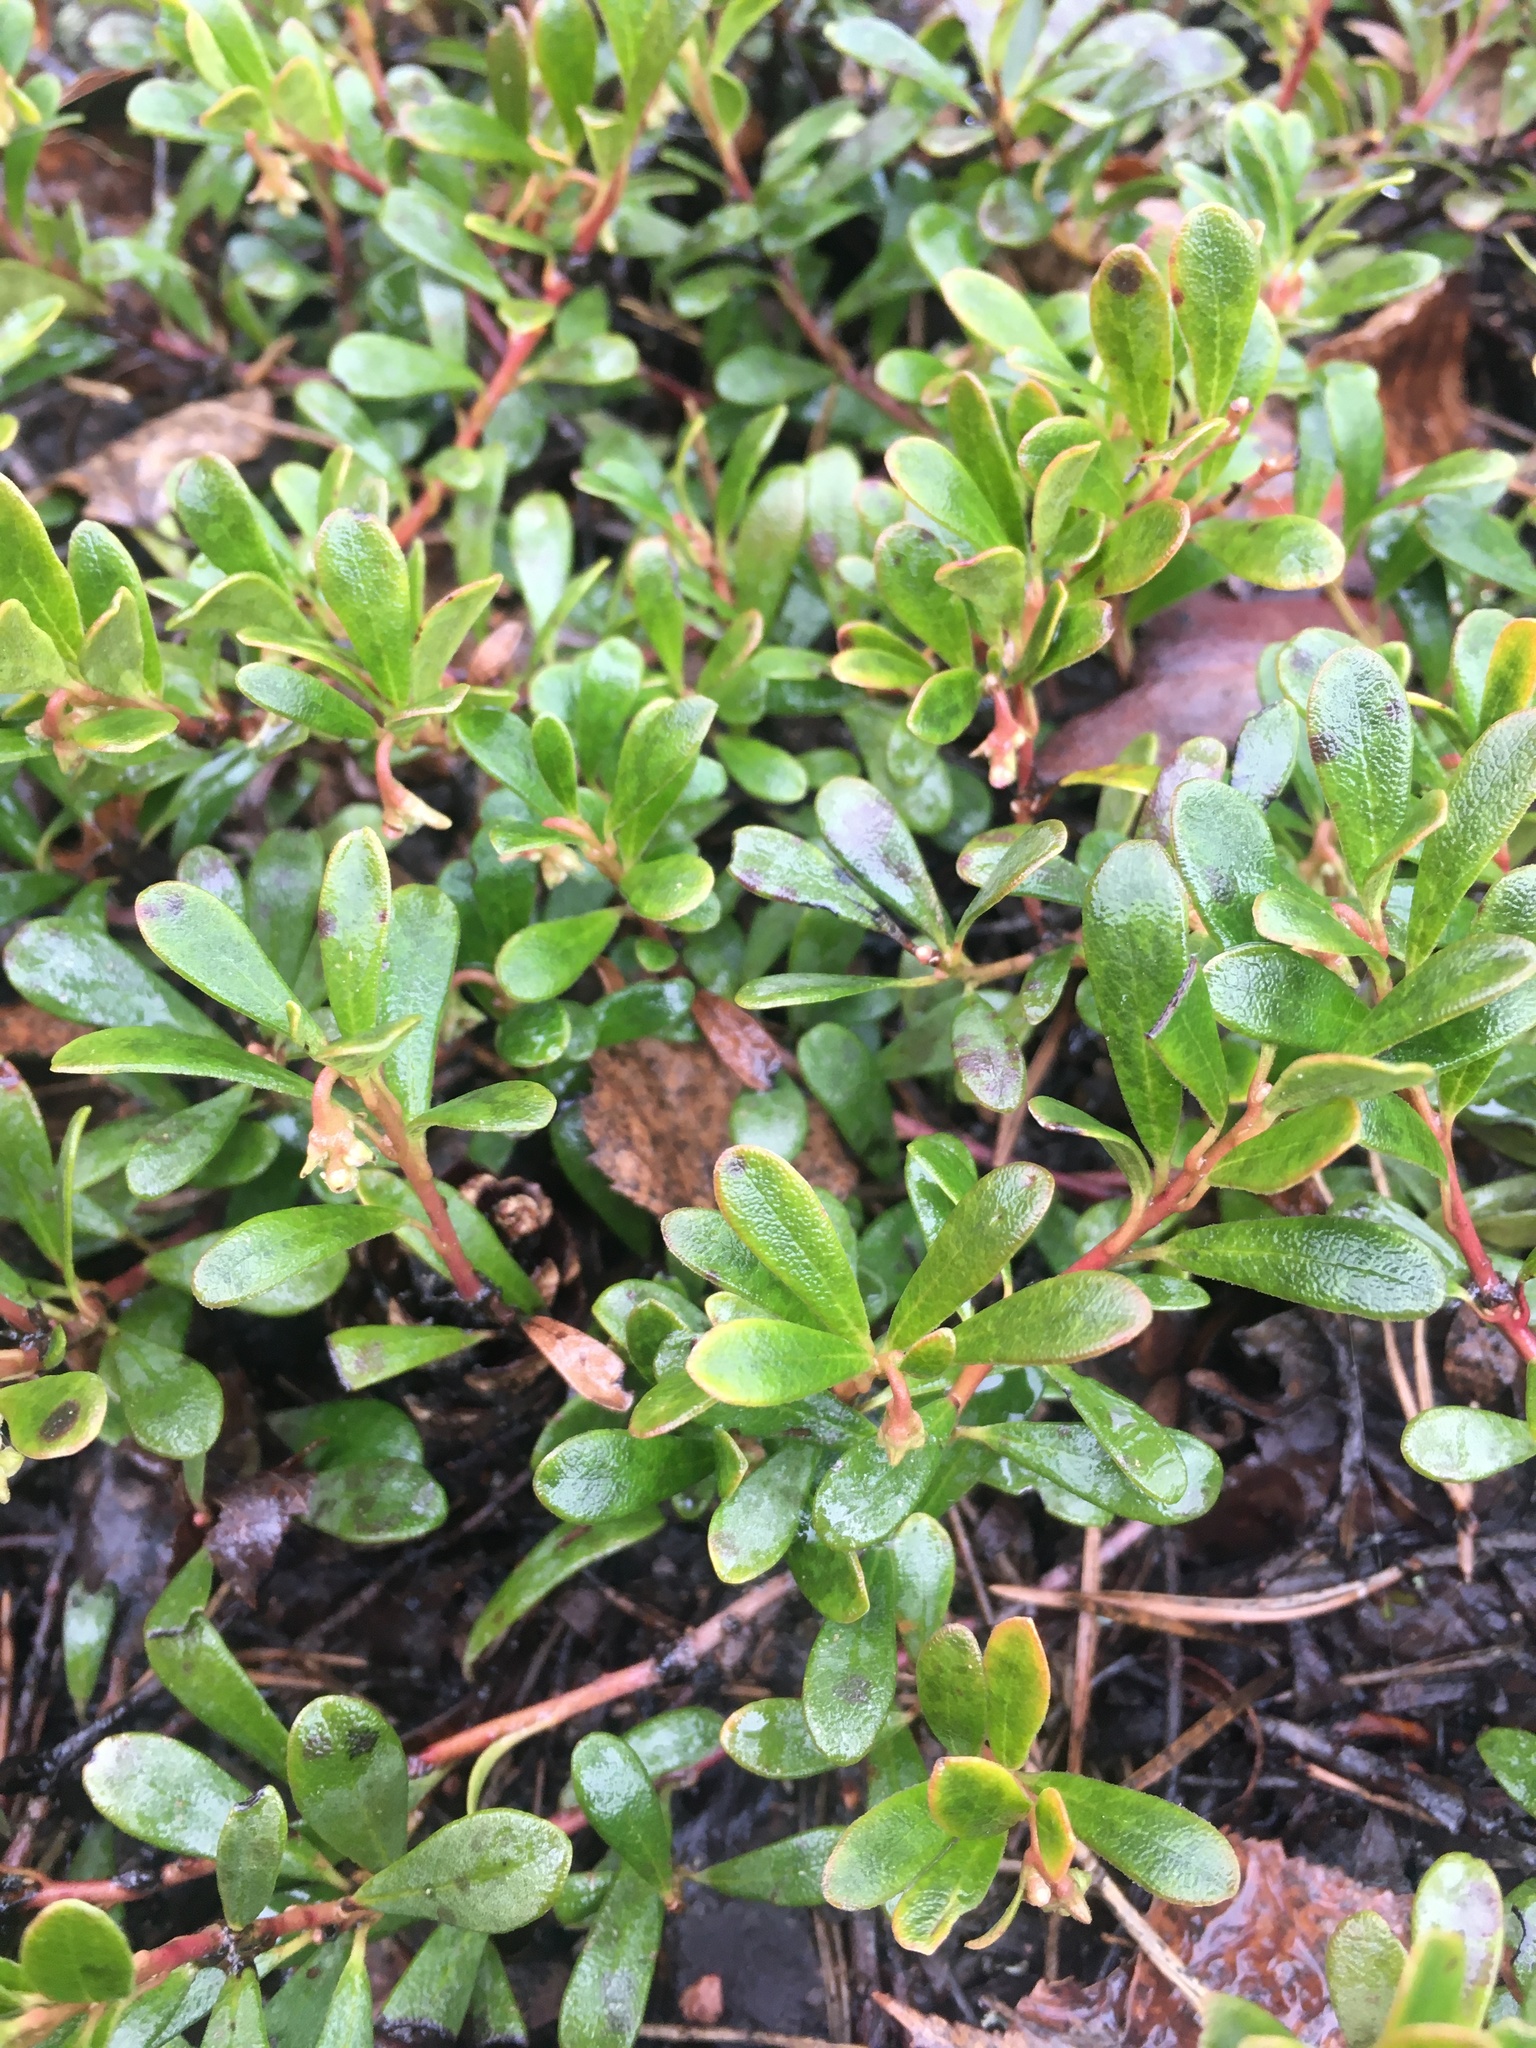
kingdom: Plantae
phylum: Tracheophyta
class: Magnoliopsida
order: Ericales
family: Ericaceae
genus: Arctostaphylos
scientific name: Arctostaphylos uva-ursi
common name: Bearberry
